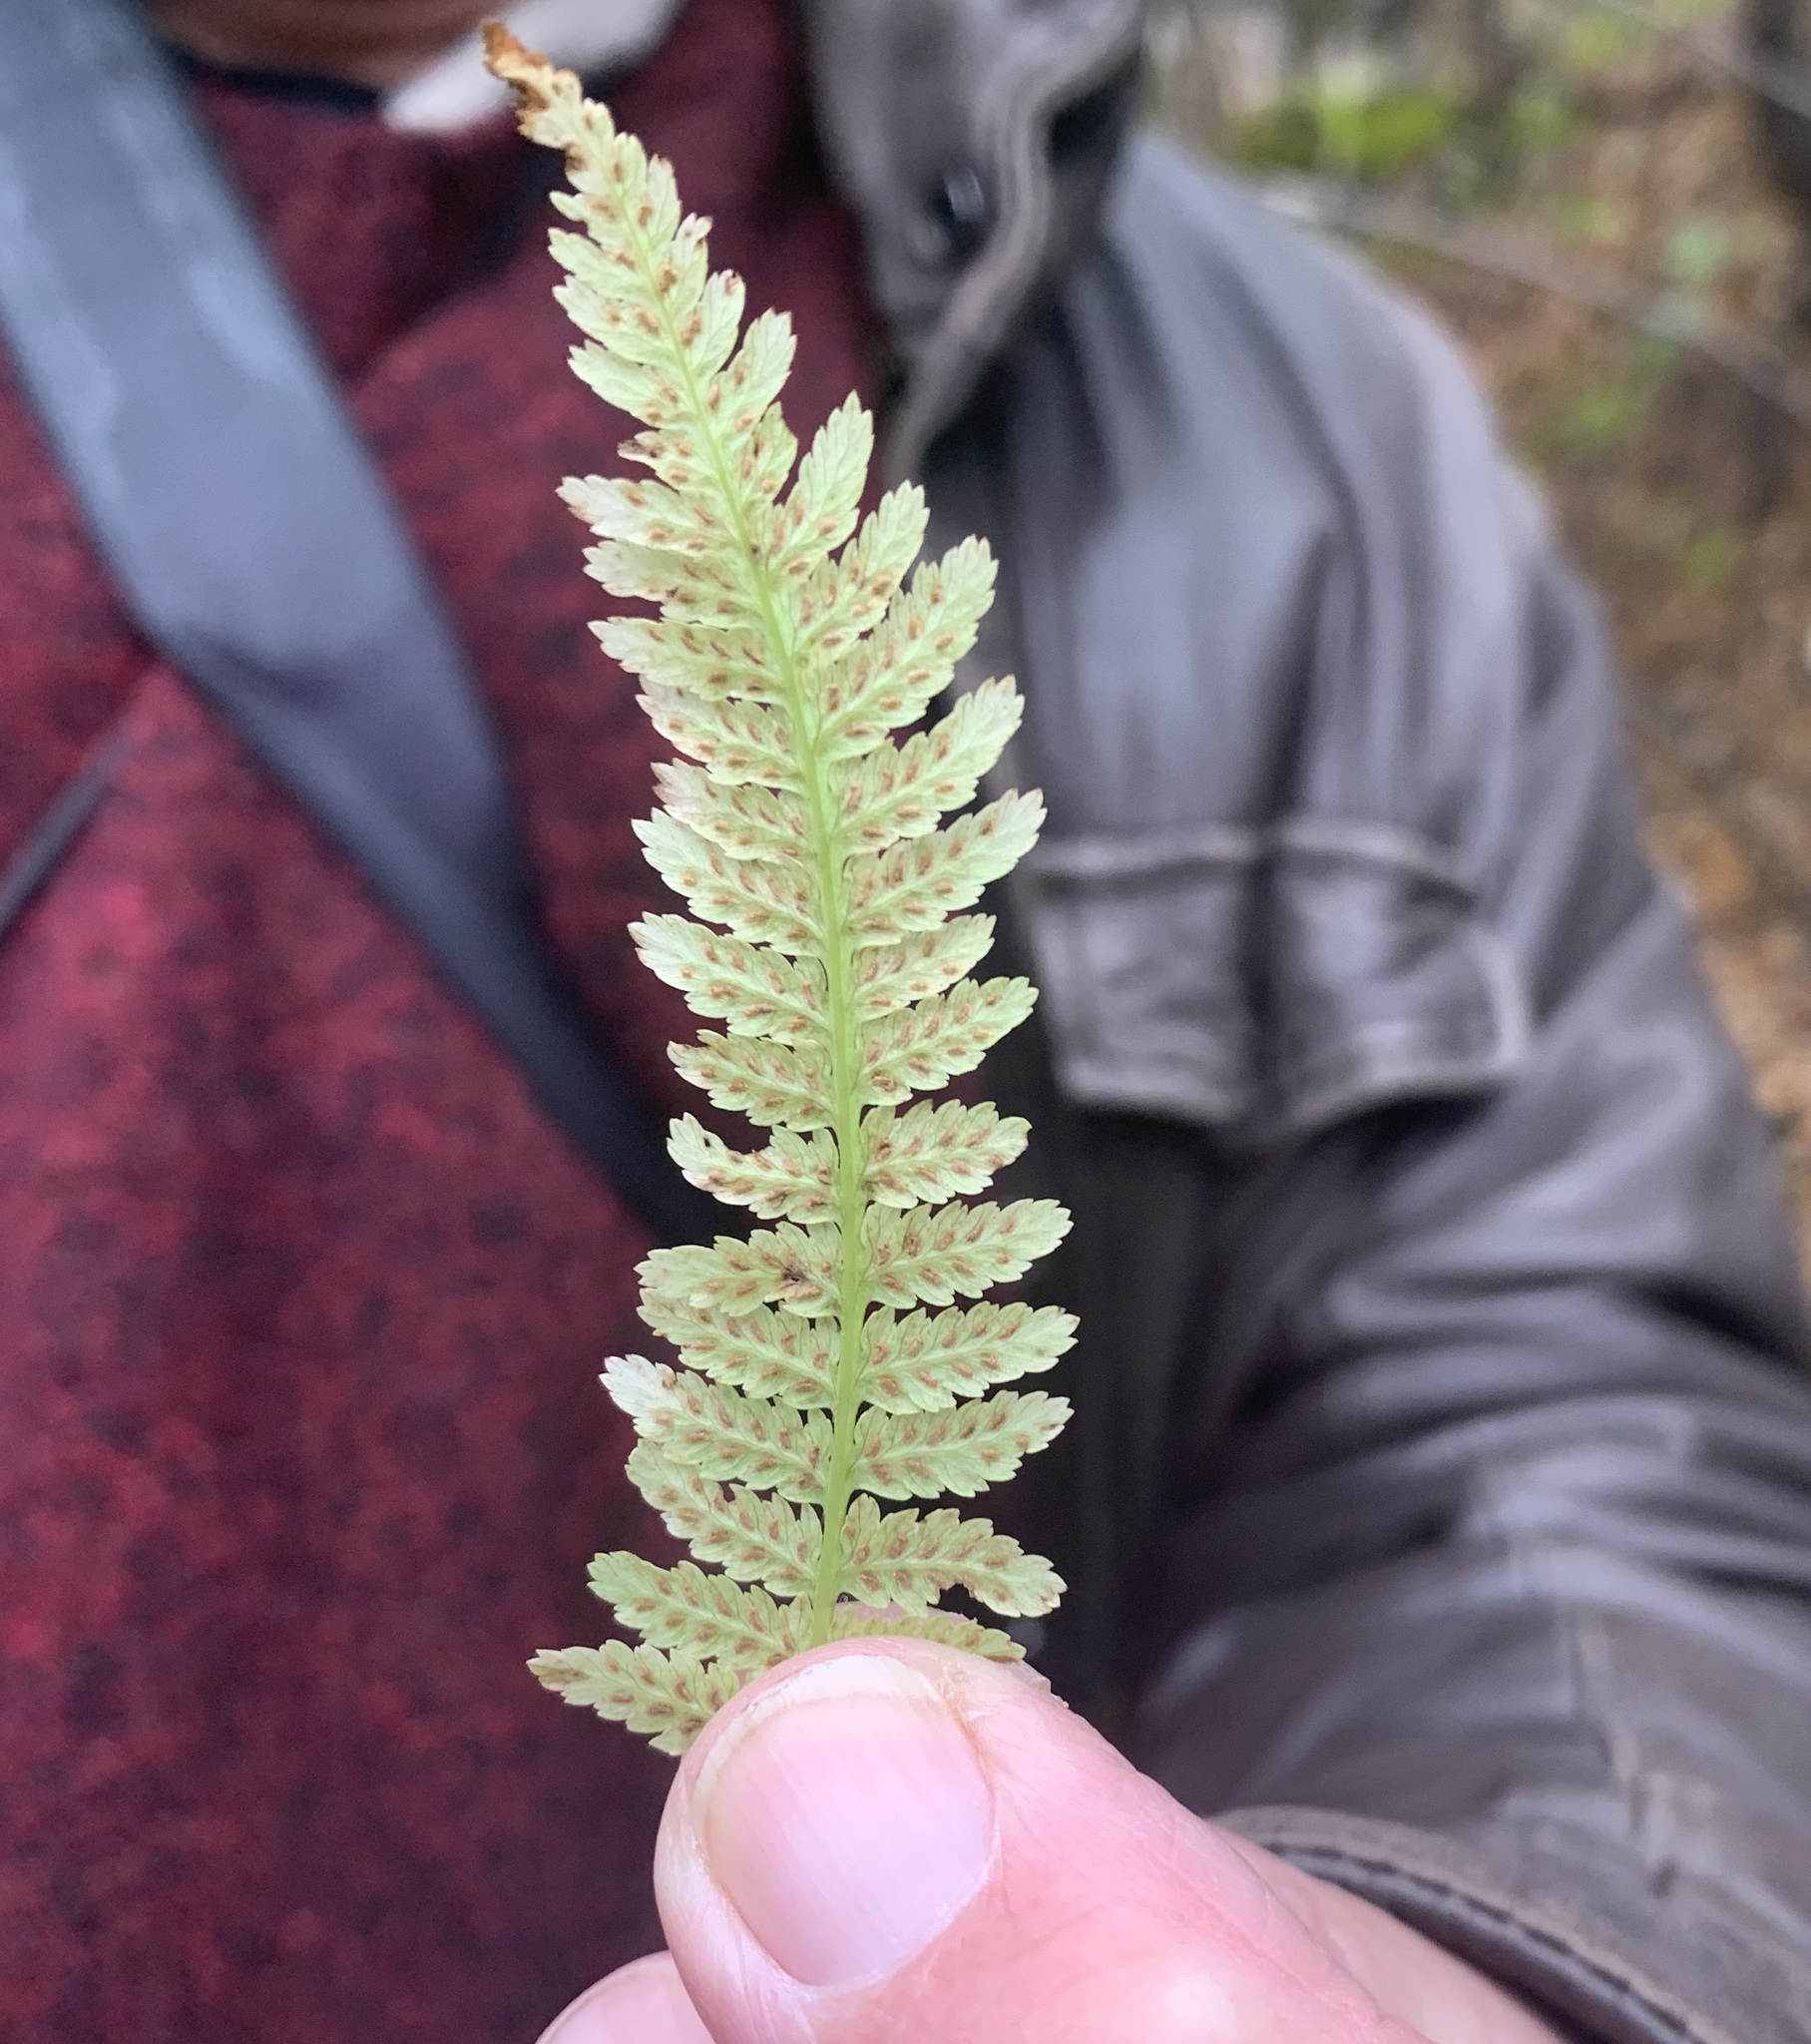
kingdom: Plantae
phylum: Tracheophyta
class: Polypodiopsida
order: Polypodiales
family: Athyriaceae
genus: Athyrium
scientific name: Athyrium angustum
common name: Northern lady fern
